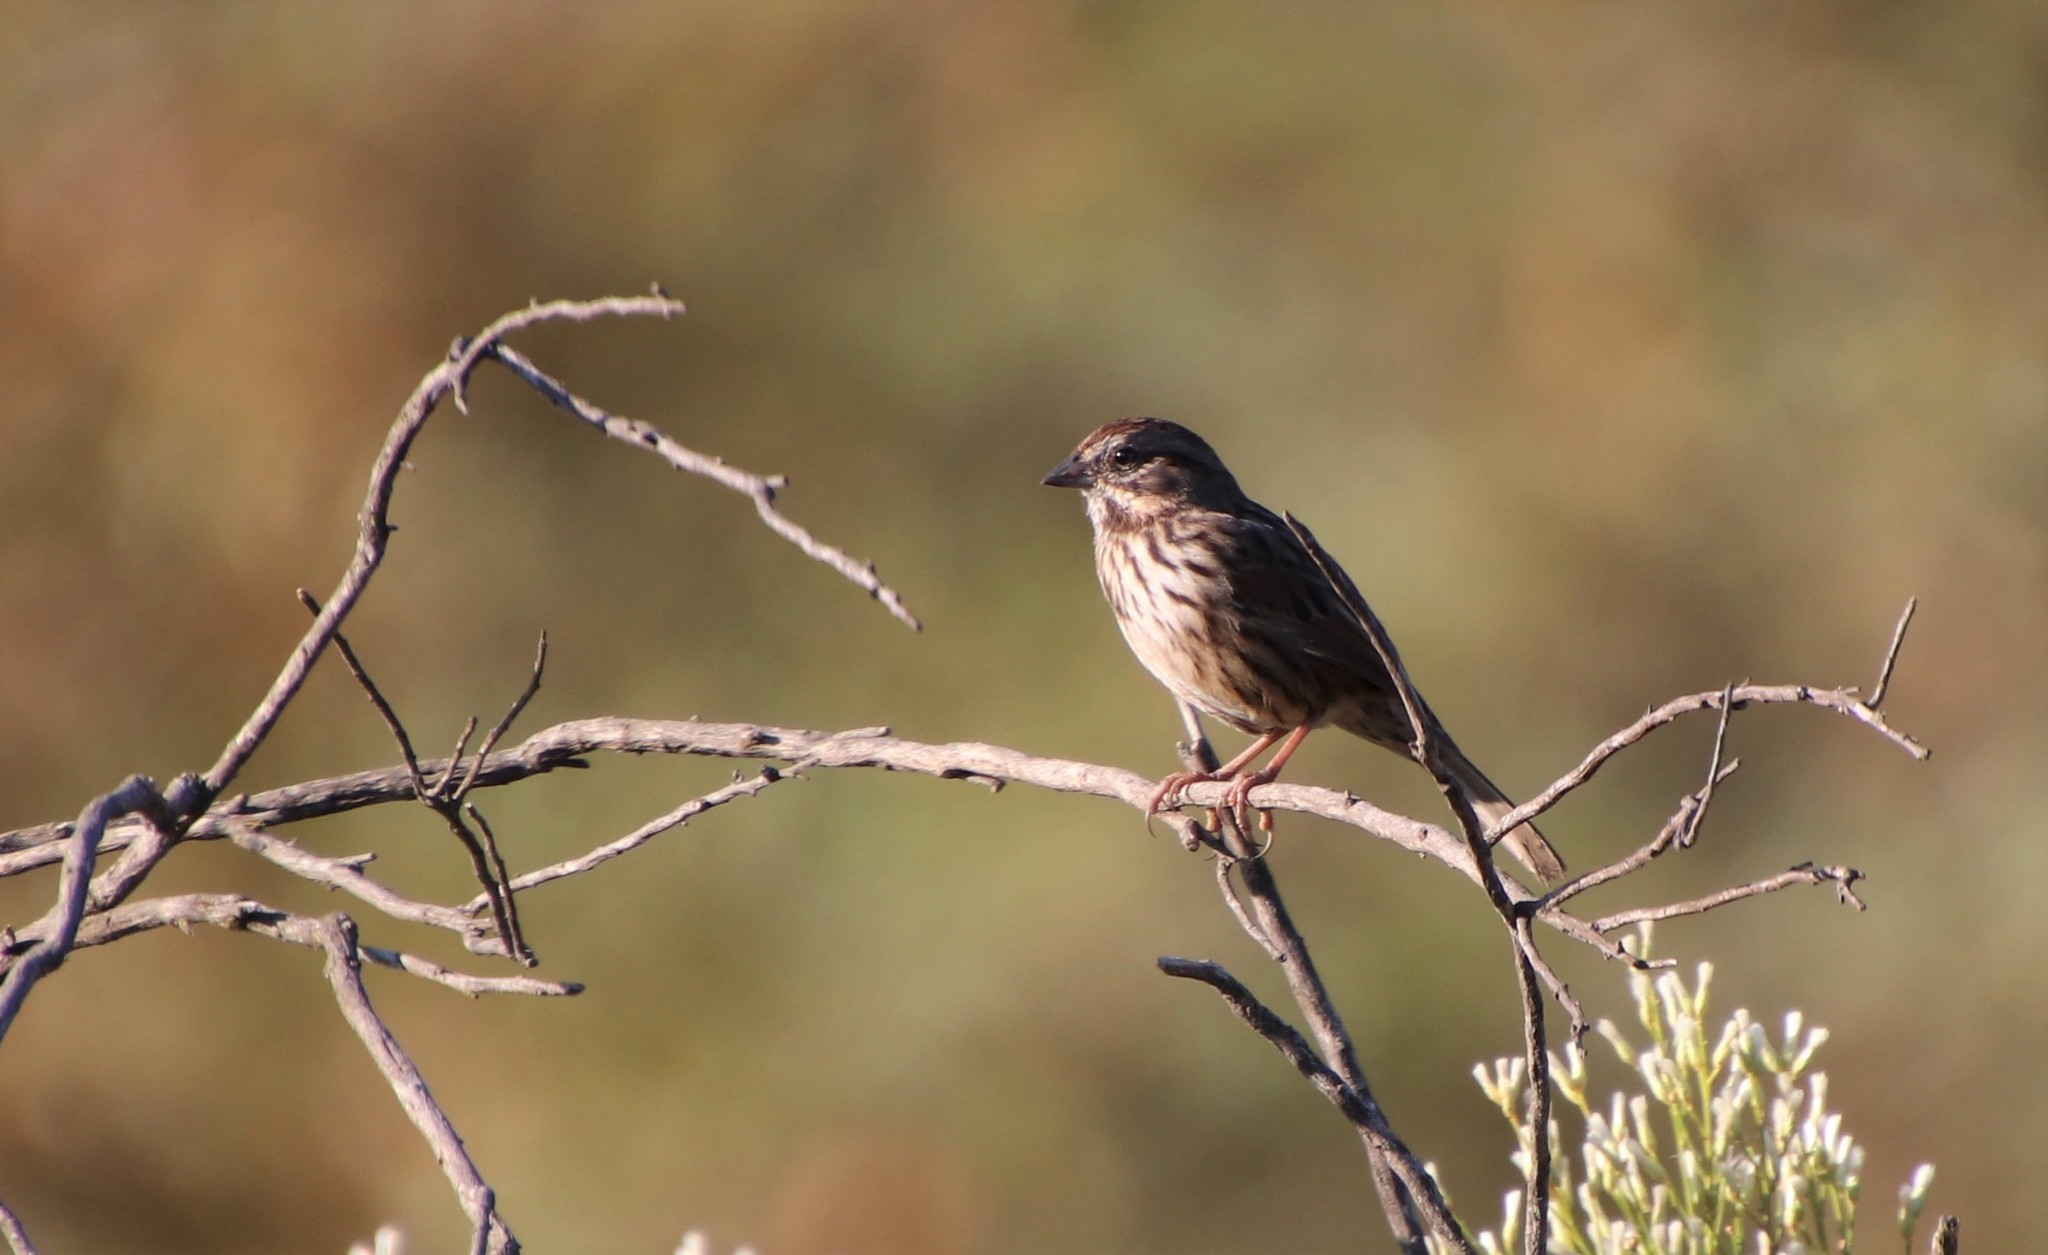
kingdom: Animalia
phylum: Chordata
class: Aves
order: Passeriformes
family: Passerellidae
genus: Melospiza
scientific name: Melospiza melodia
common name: Song sparrow
